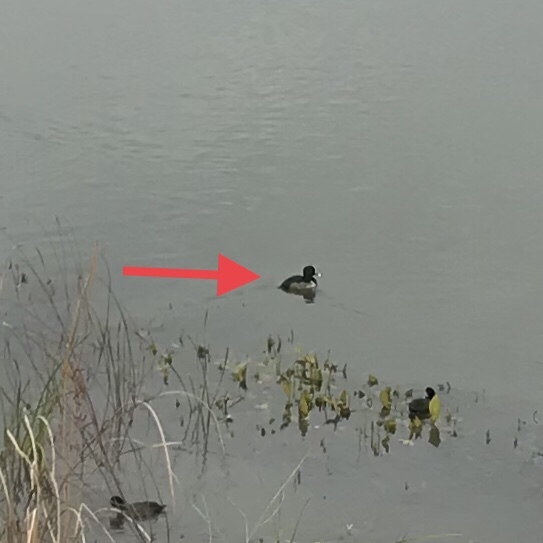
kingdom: Animalia
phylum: Chordata
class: Aves
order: Anseriformes
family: Anatidae
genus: Aythya
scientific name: Aythya collaris
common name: Ring-necked duck
